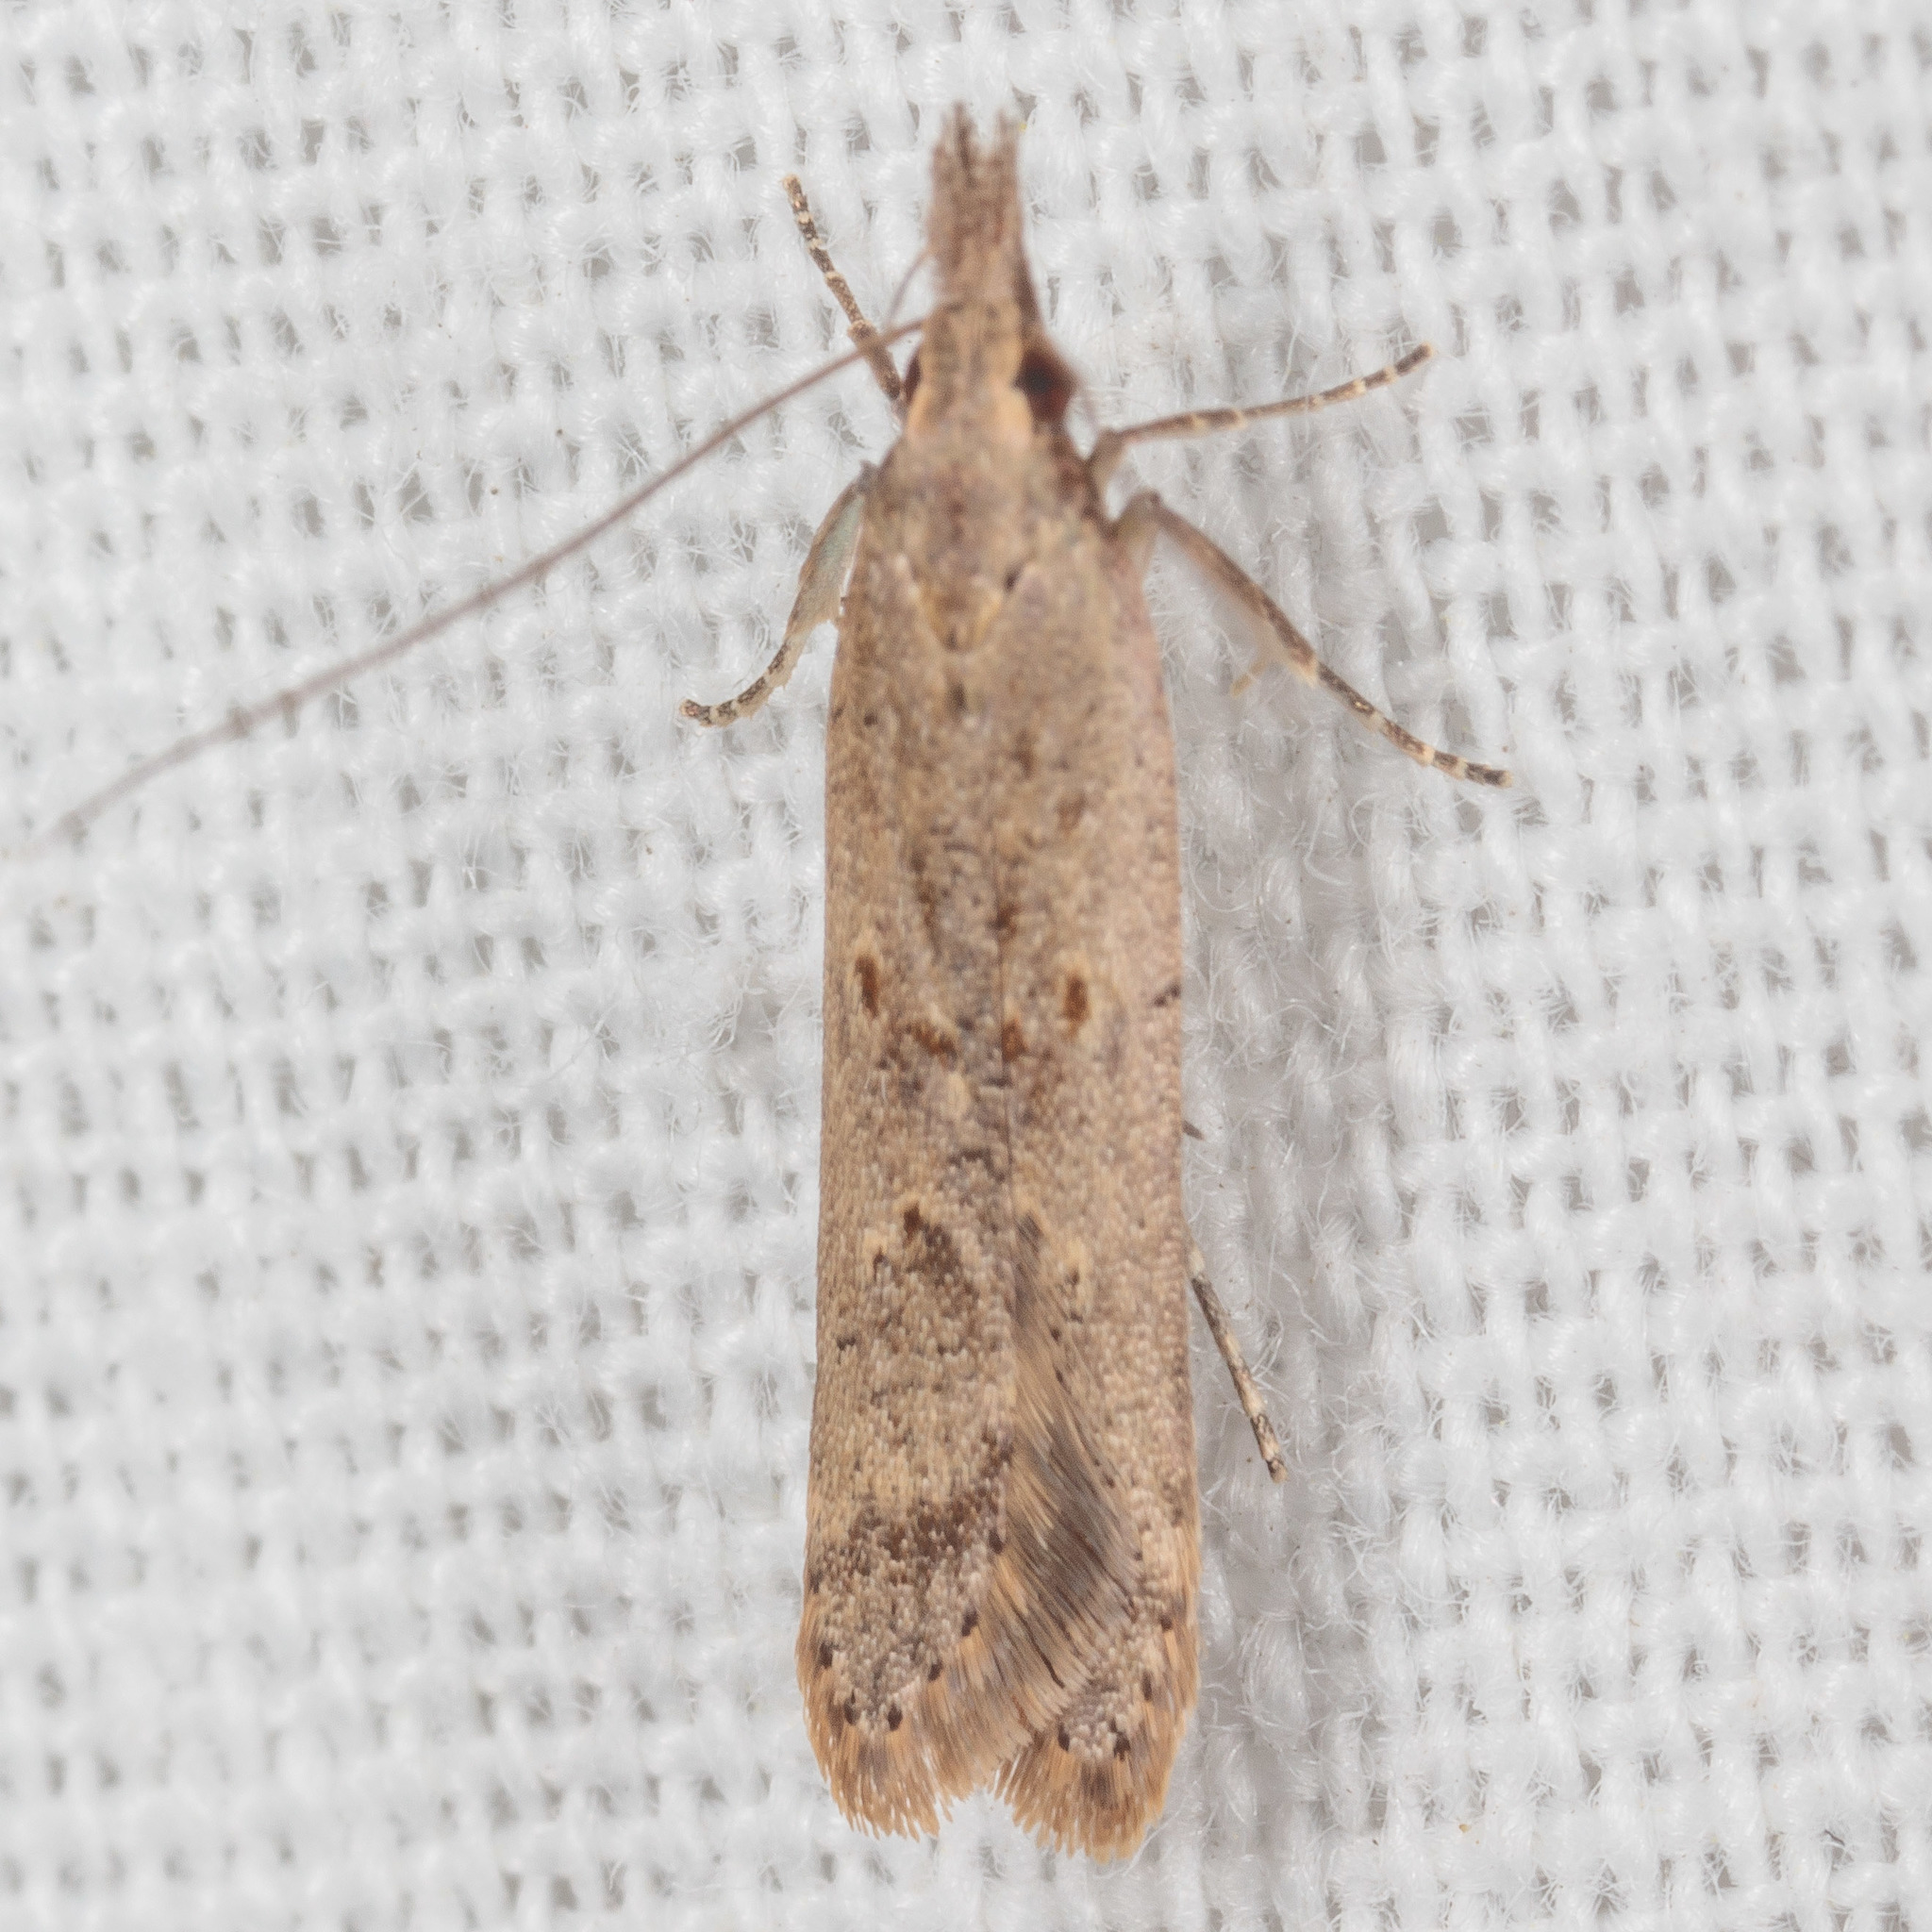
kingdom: Animalia
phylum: Arthropoda
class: Insecta
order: Lepidoptera
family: Gelechiidae
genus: Dichomeris
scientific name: Dichomeris ligulella
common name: Moth
